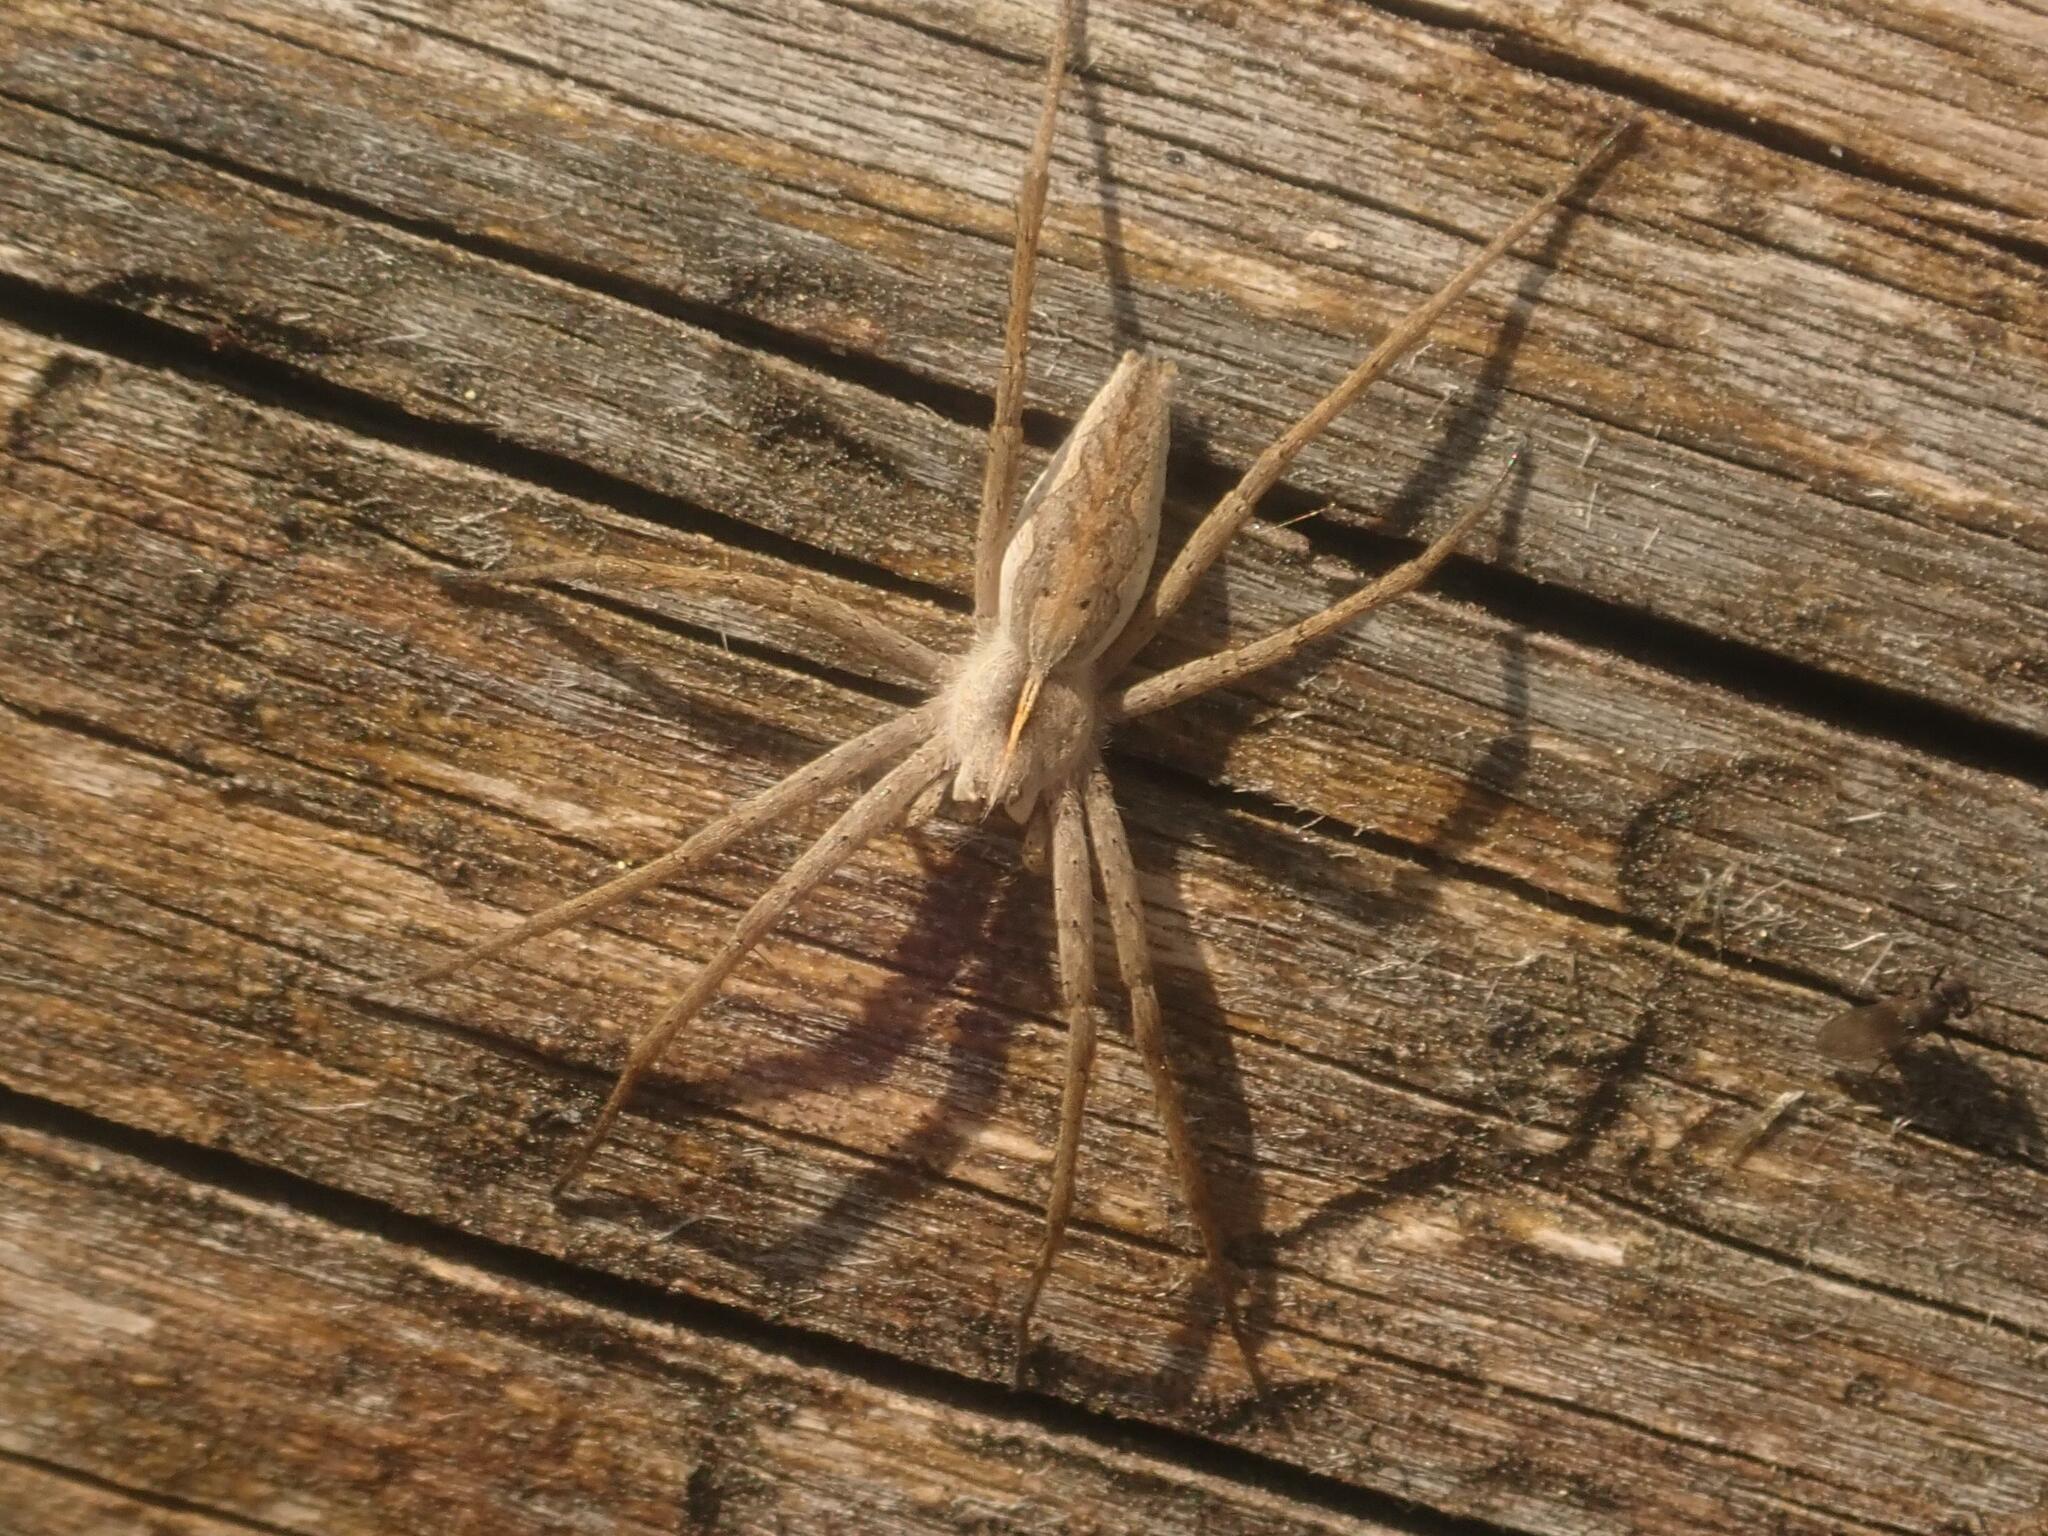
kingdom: Animalia
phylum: Arthropoda
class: Arachnida
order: Araneae
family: Pisauridae
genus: Pisaura
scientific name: Pisaura mirabilis
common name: Tent spider
